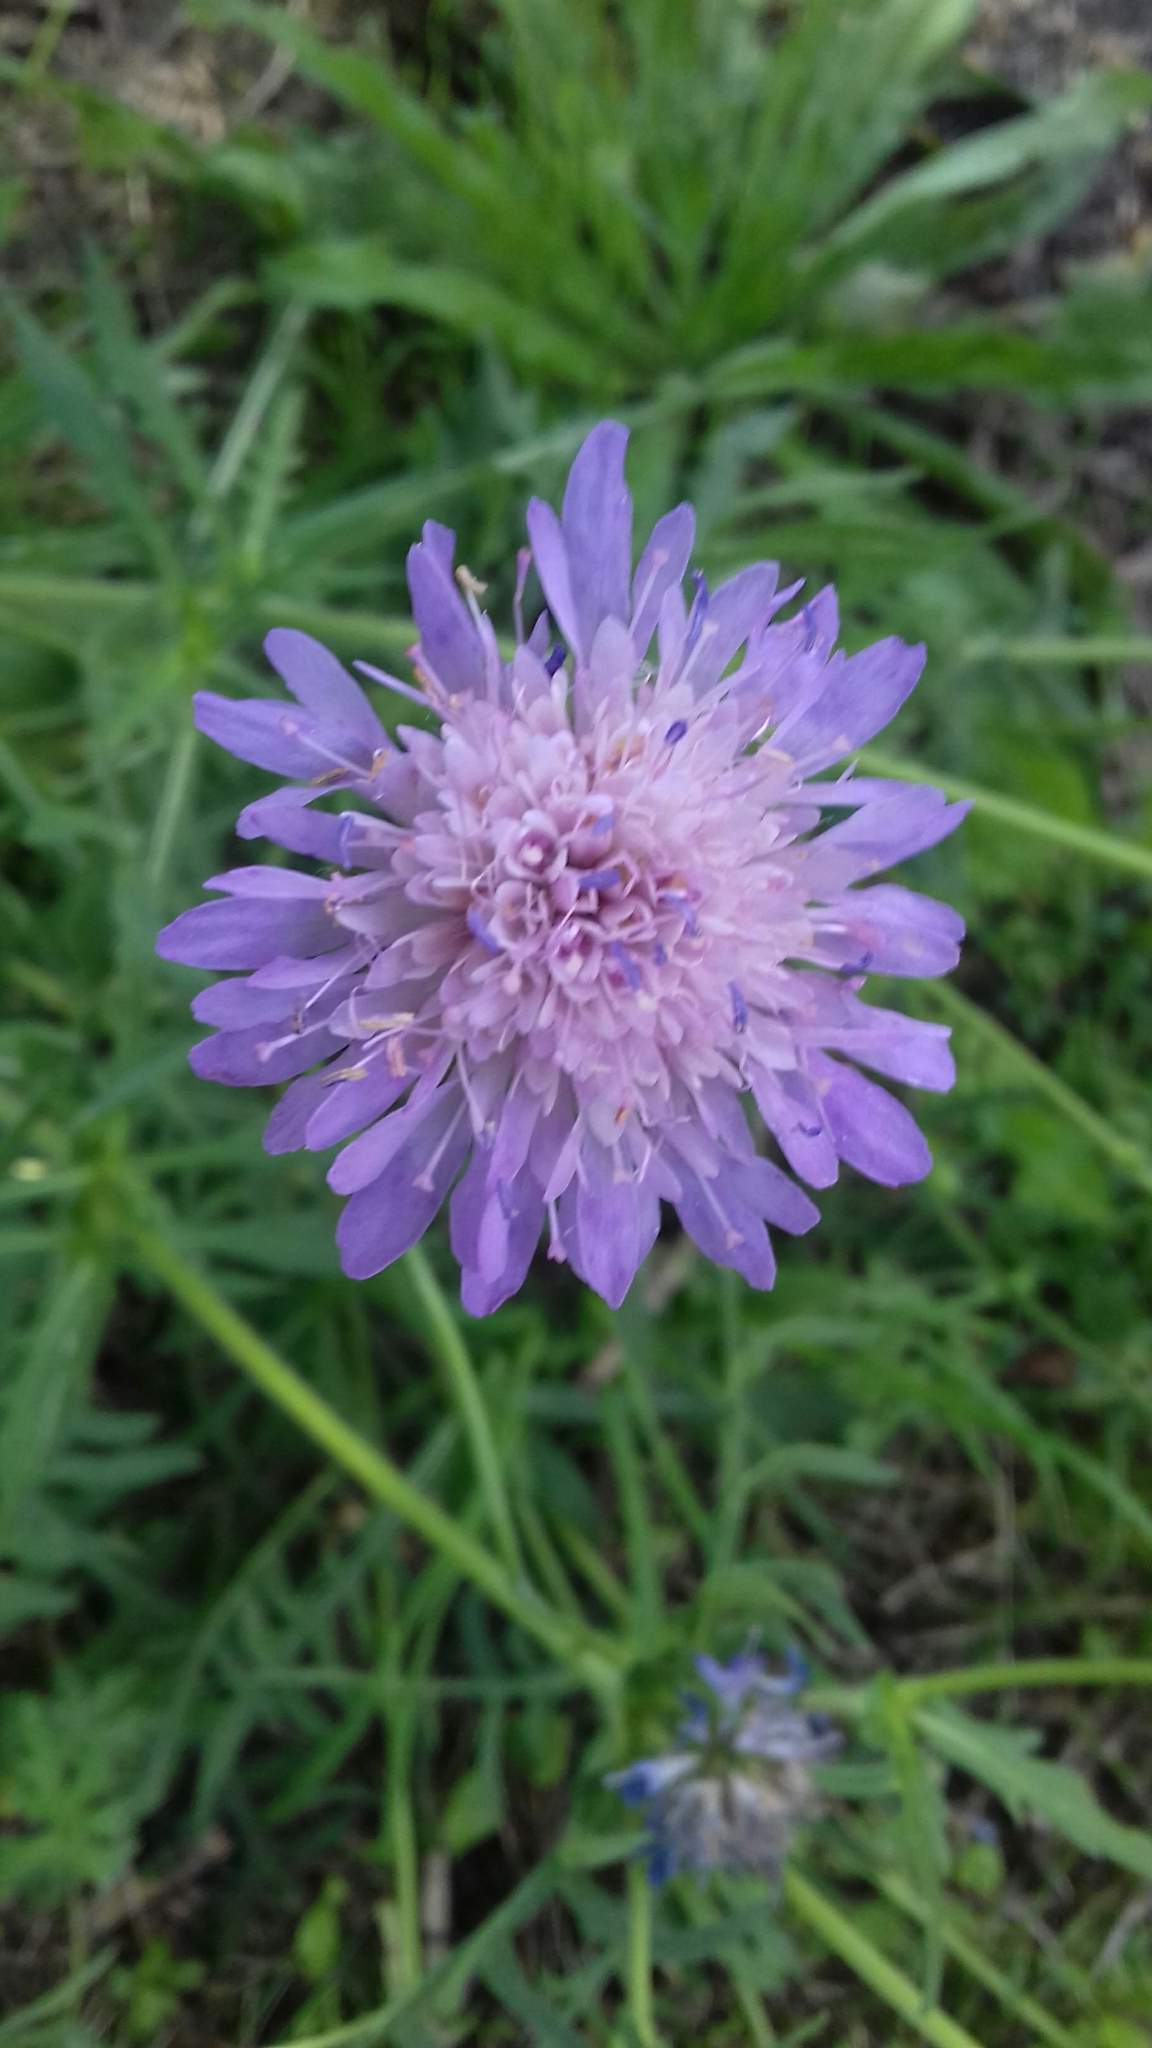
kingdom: Plantae
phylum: Tracheophyta
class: Magnoliopsida
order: Dipsacales
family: Caprifoliaceae
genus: Knautia
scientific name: Knautia arvensis
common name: Field scabiosa
